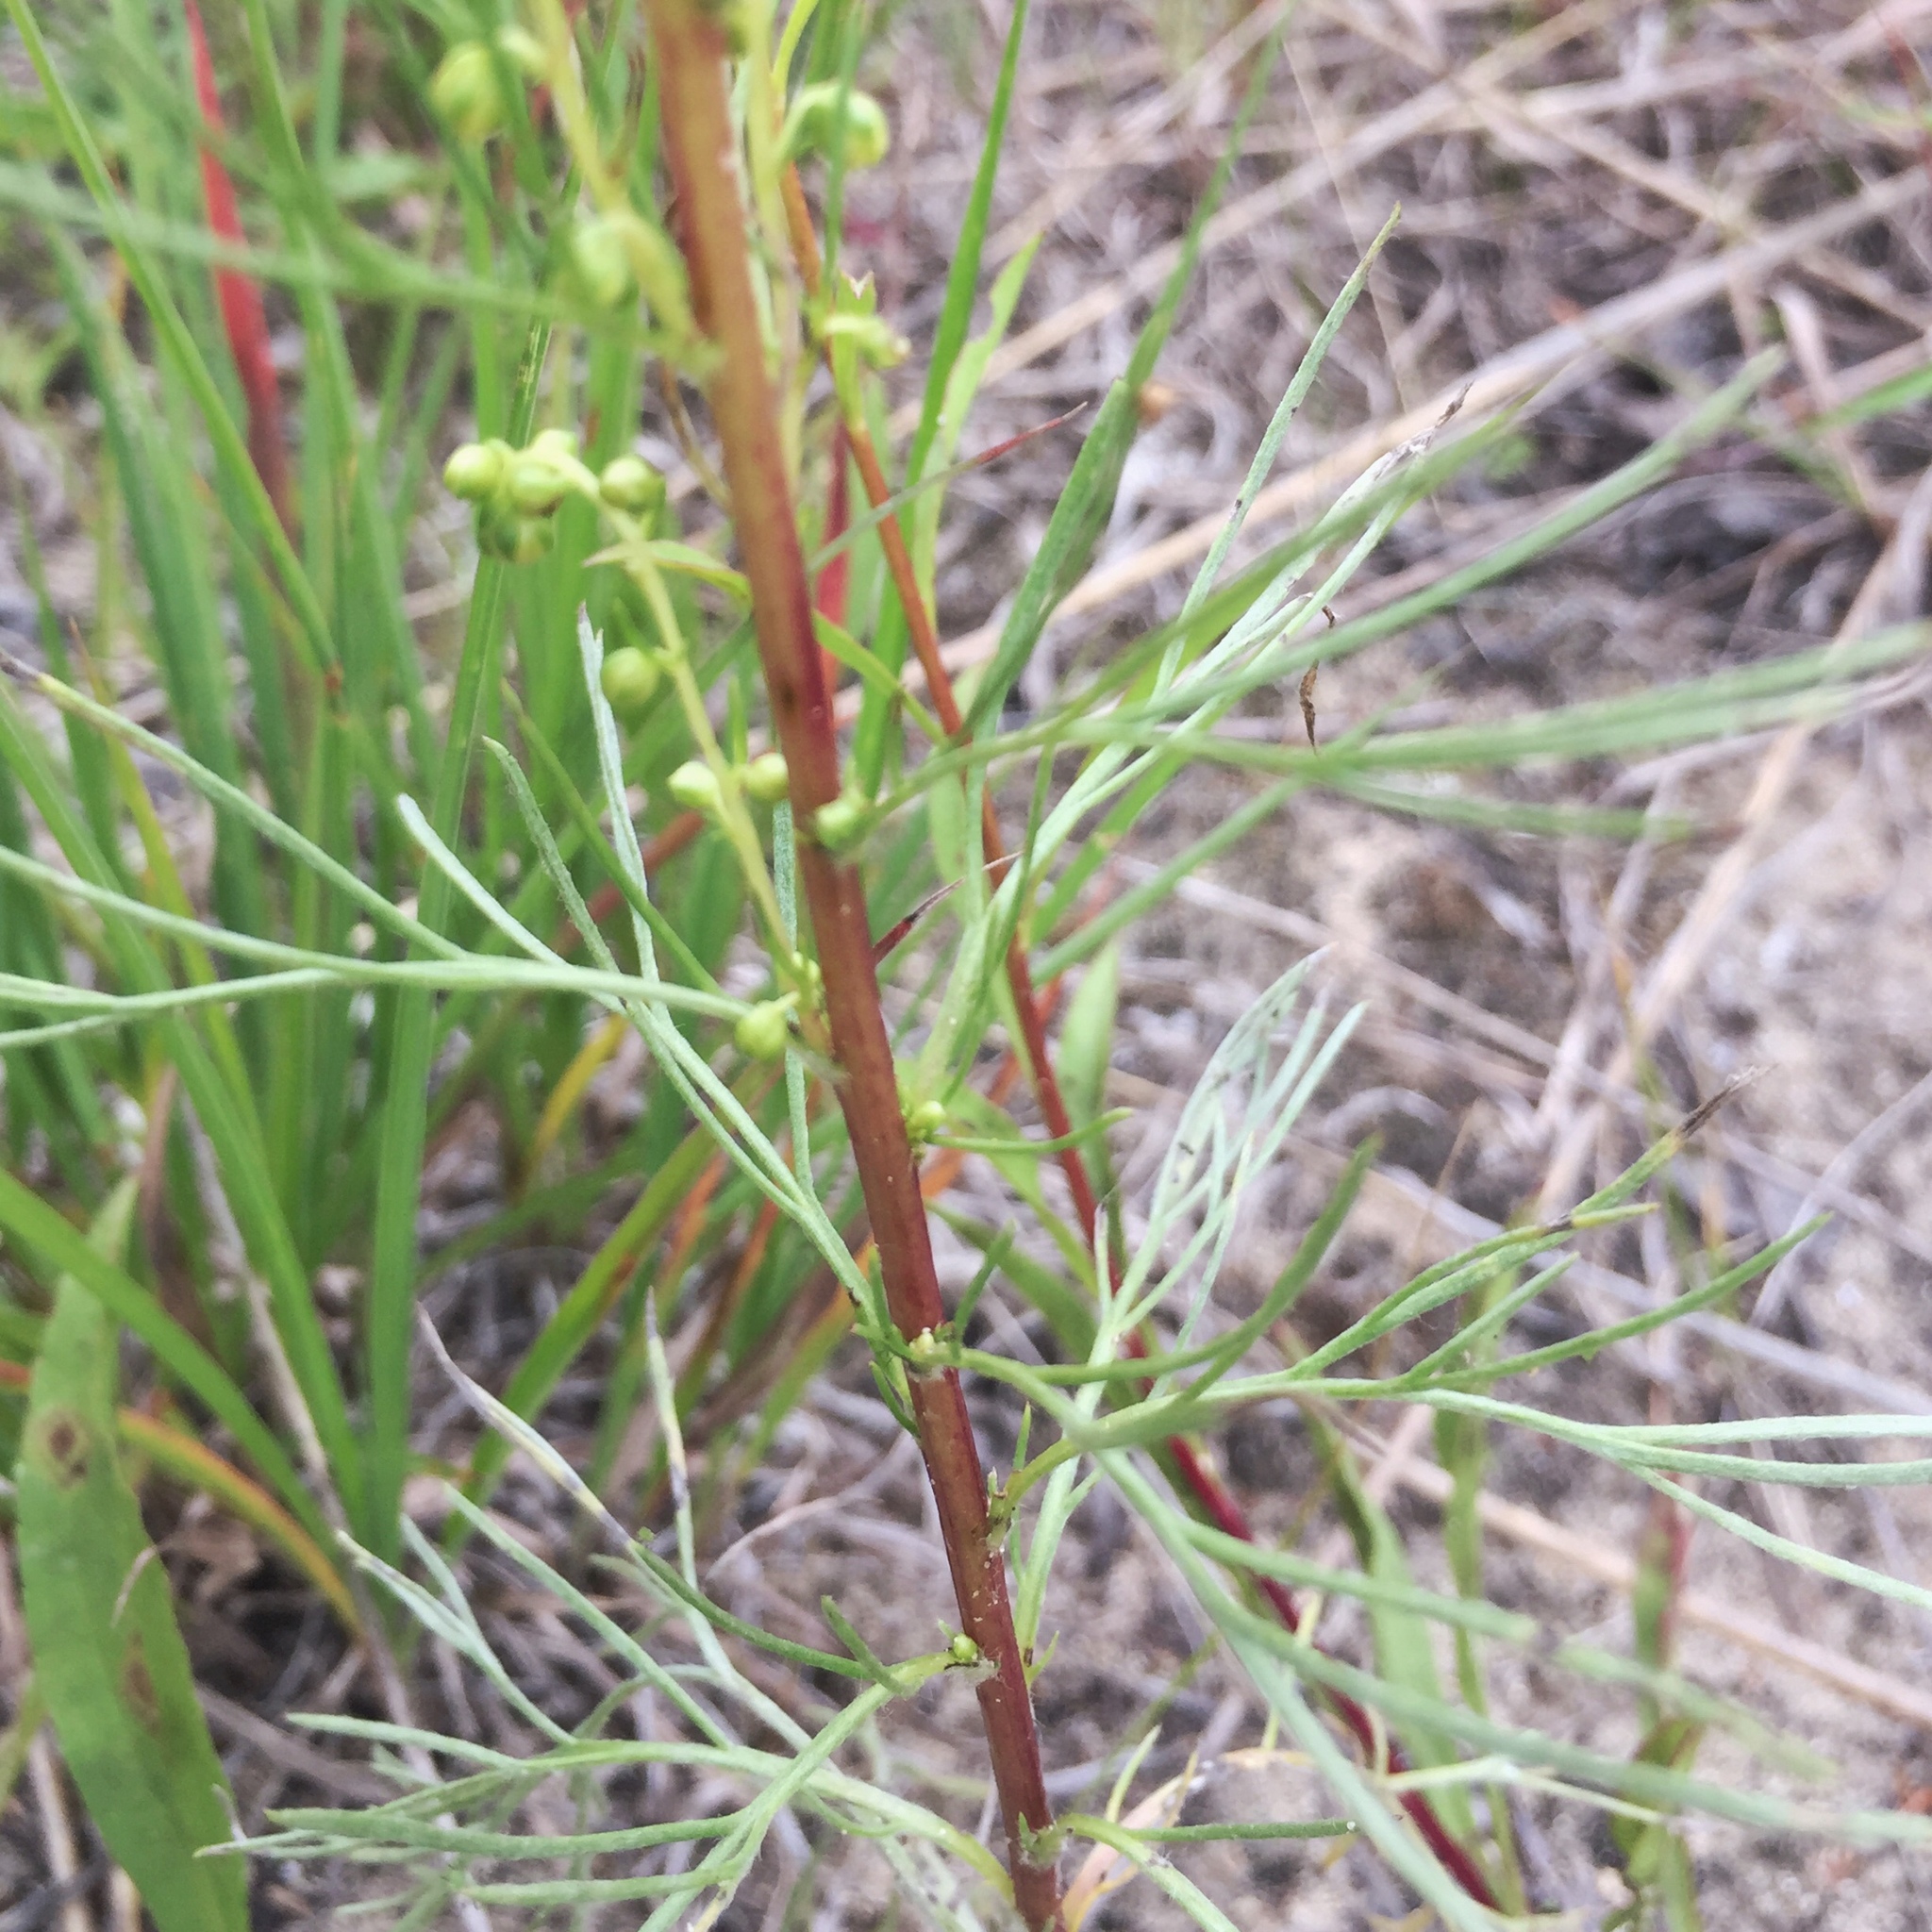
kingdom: Plantae
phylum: Tracheophyta
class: Magnoliopsida
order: Asterales
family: Asteraceae
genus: Artemisia
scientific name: Artemisia campestris
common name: Field wormwood
